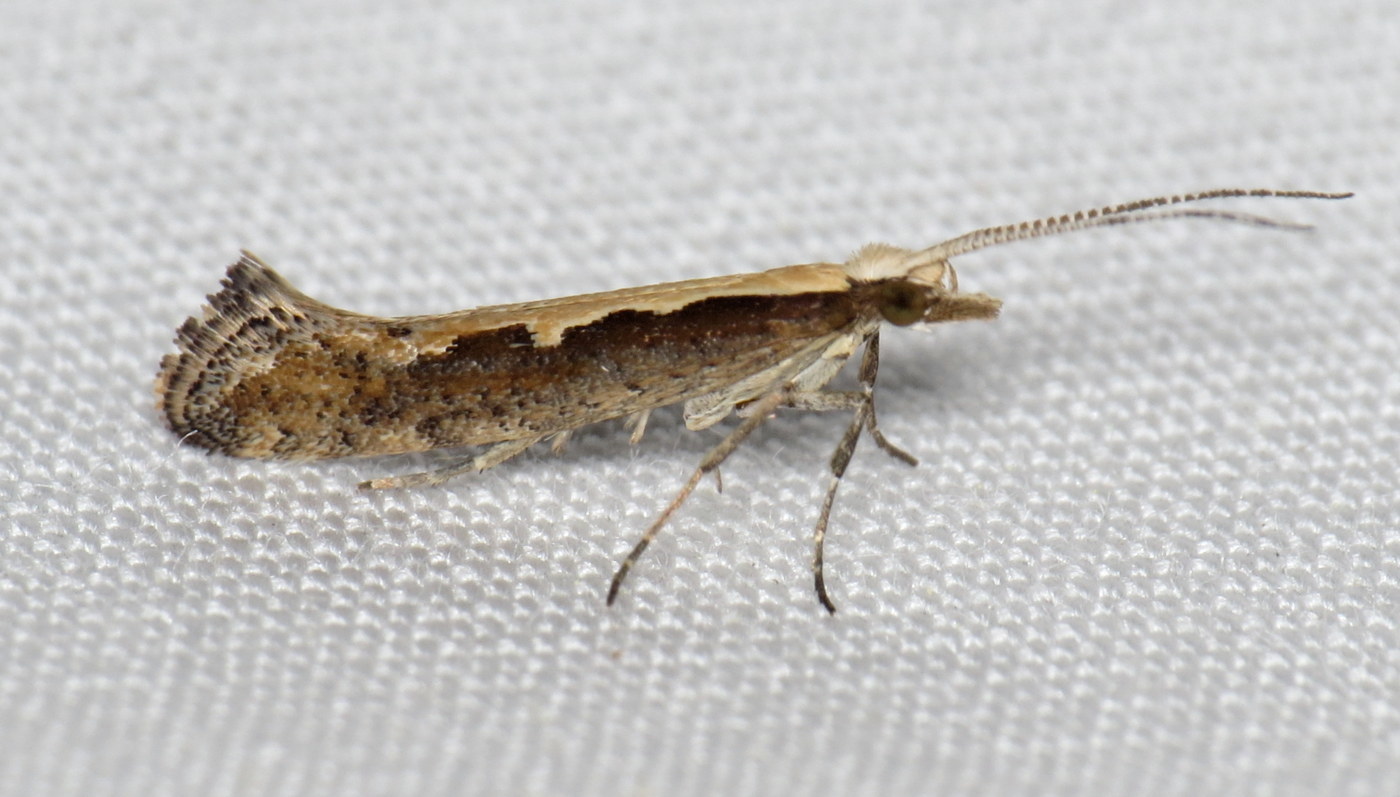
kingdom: Animalia
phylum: Arthropoda
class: Insecta
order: Lepidoptera
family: Plutellidae
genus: Plutella
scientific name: Plutella xylostella
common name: Diamond-back moth
